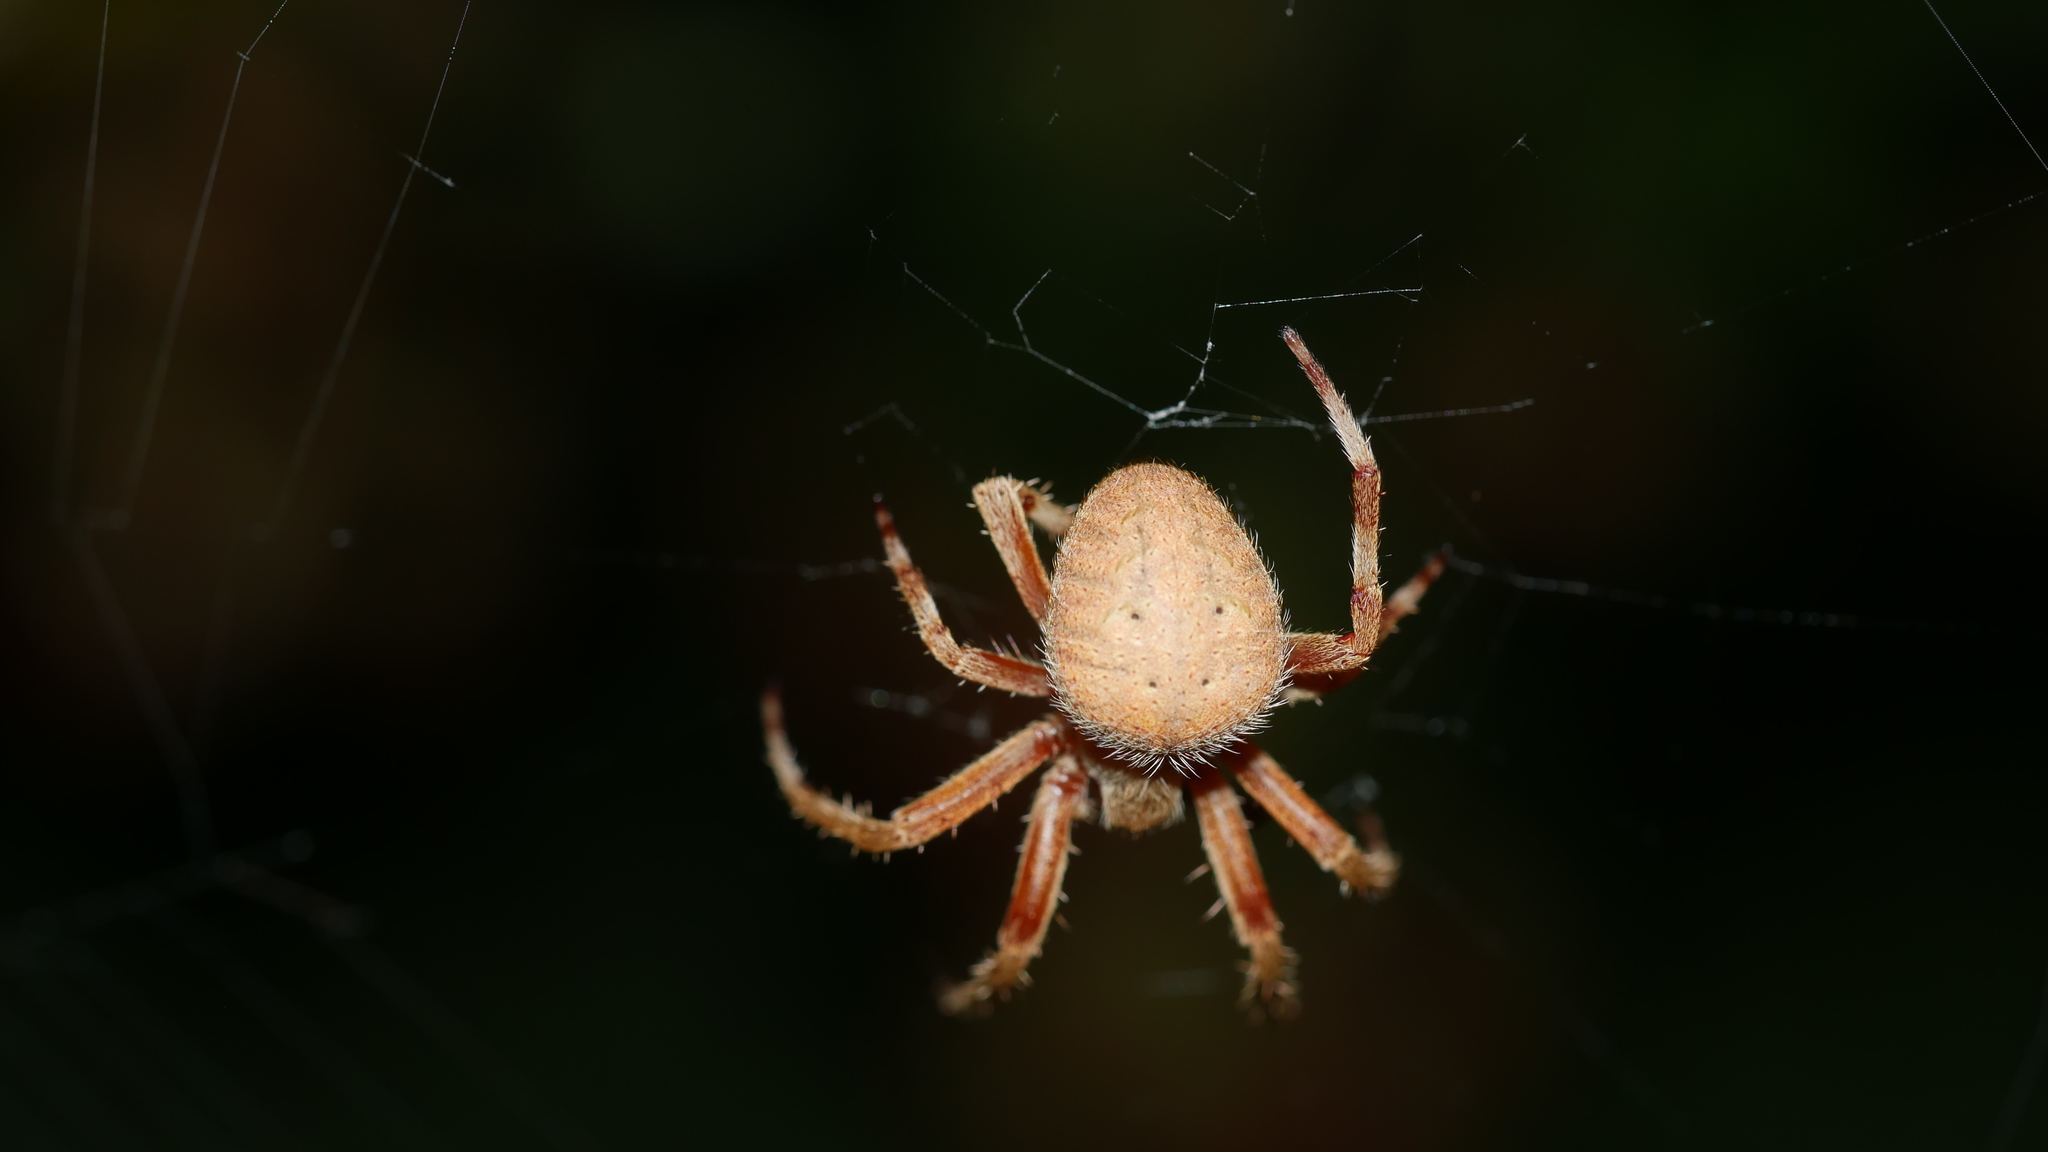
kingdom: Animalia
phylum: Arthropoda
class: Arachnida
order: Araneae
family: Araneidae
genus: Neoscona
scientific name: Neoscona crucifera
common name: Spotted orbweaver
